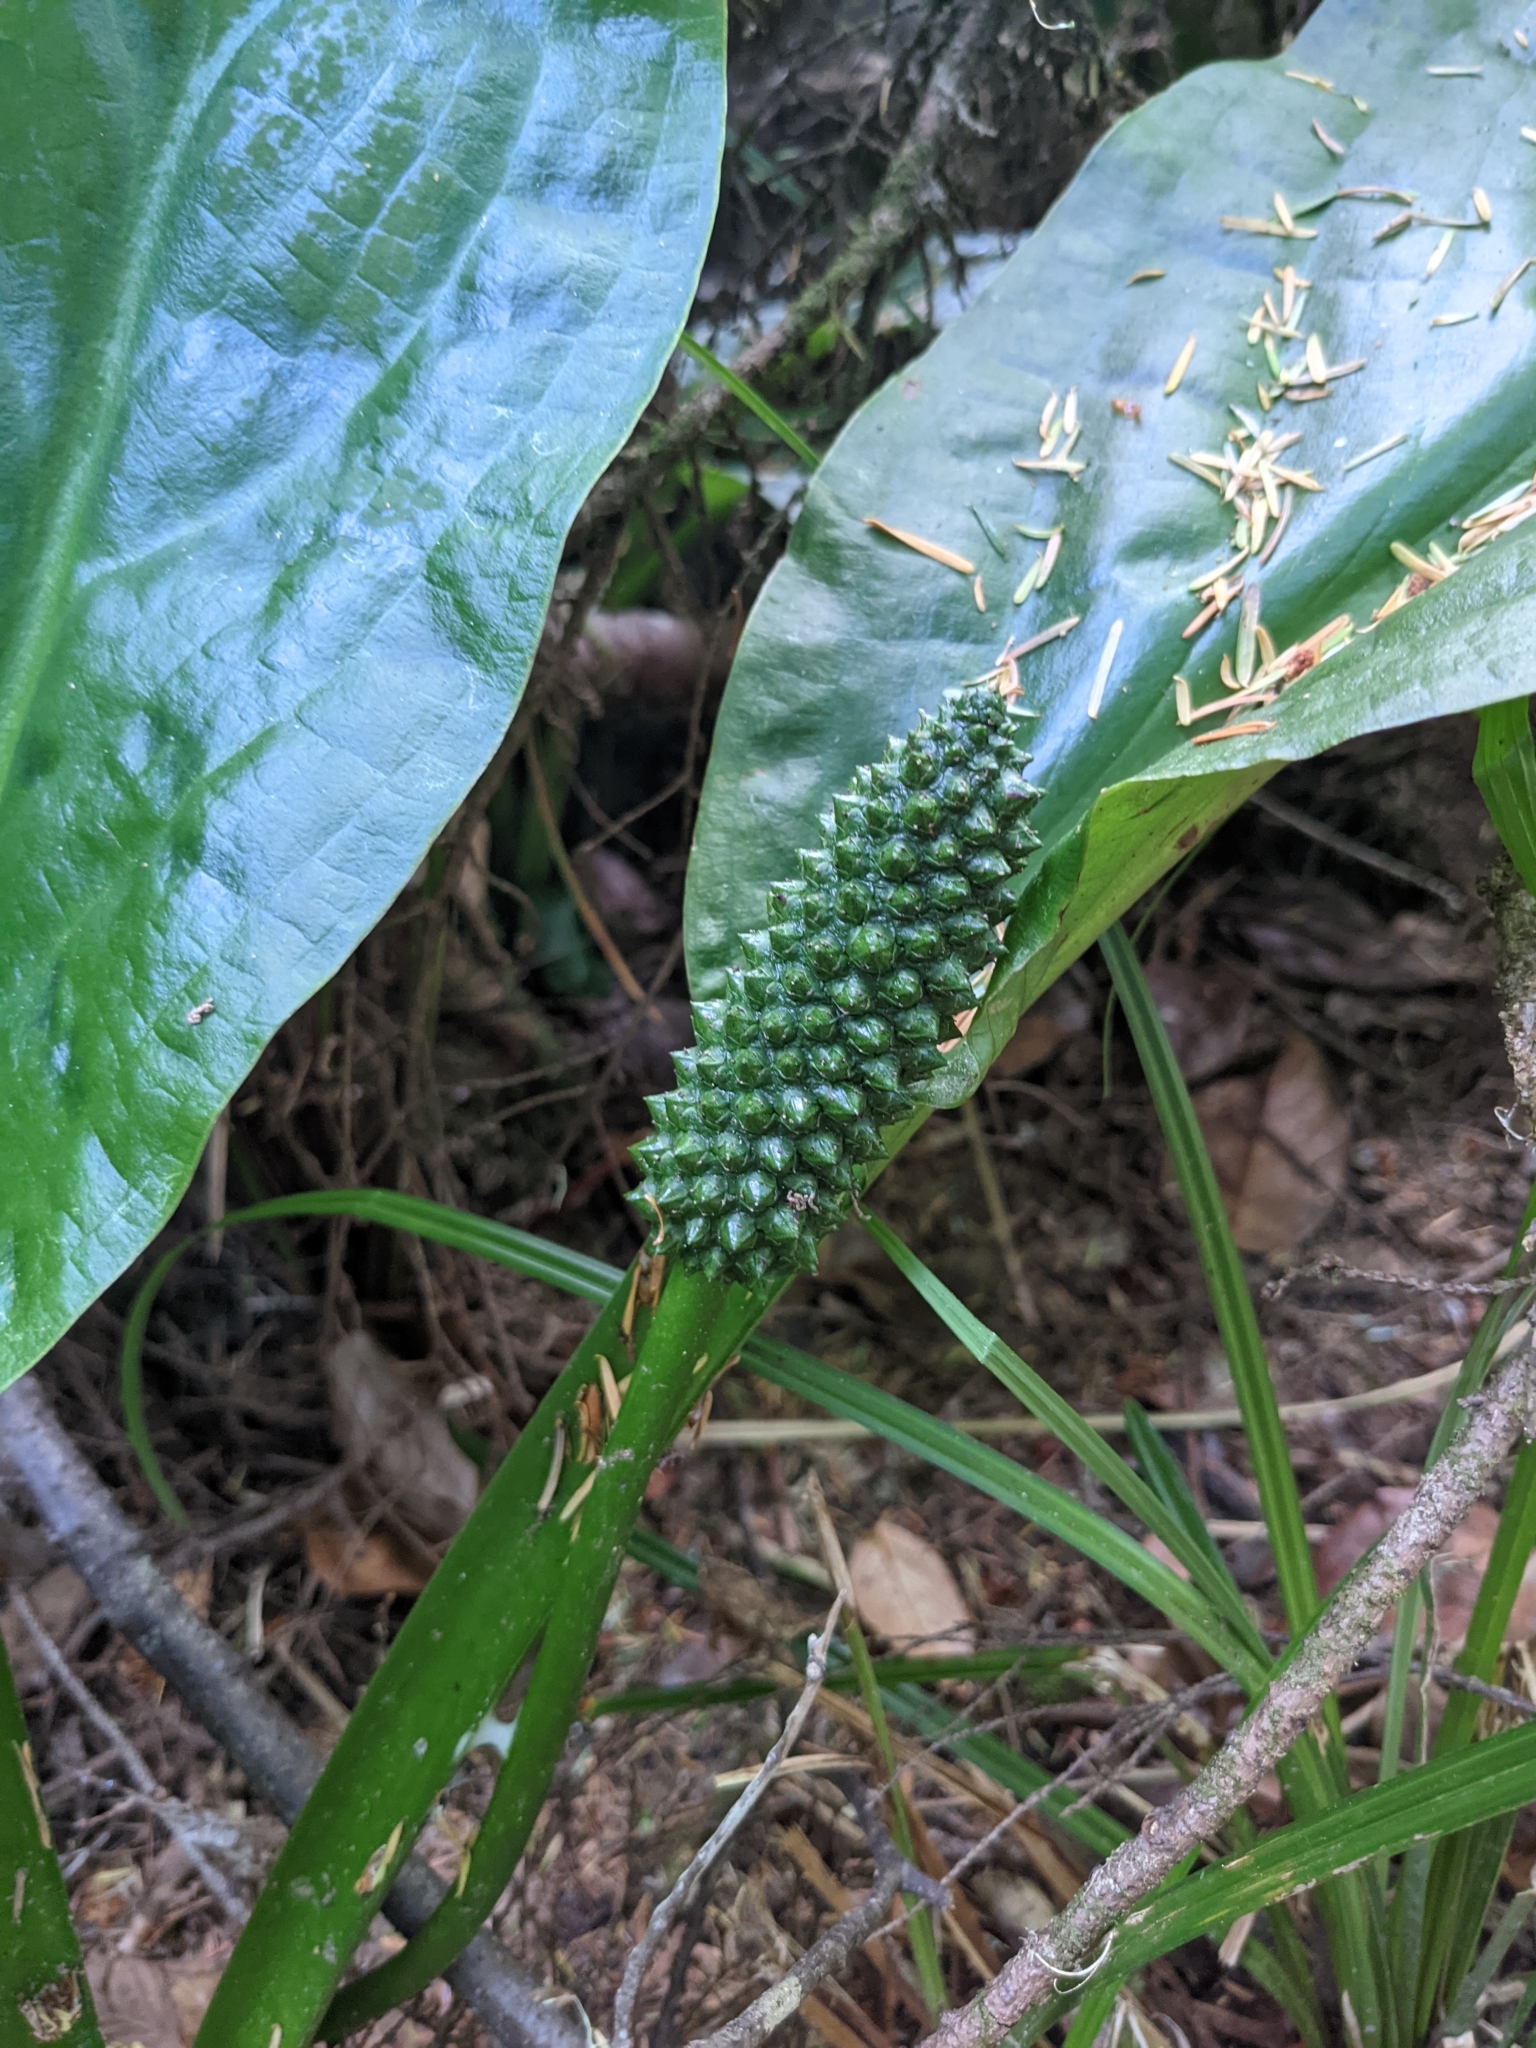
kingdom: Plantae
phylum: Tracheophyta
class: Liliopsida
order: Alismatales
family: Araceae
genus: Lysichiton
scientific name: Lysichiton americanus
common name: American skunk cabbage
